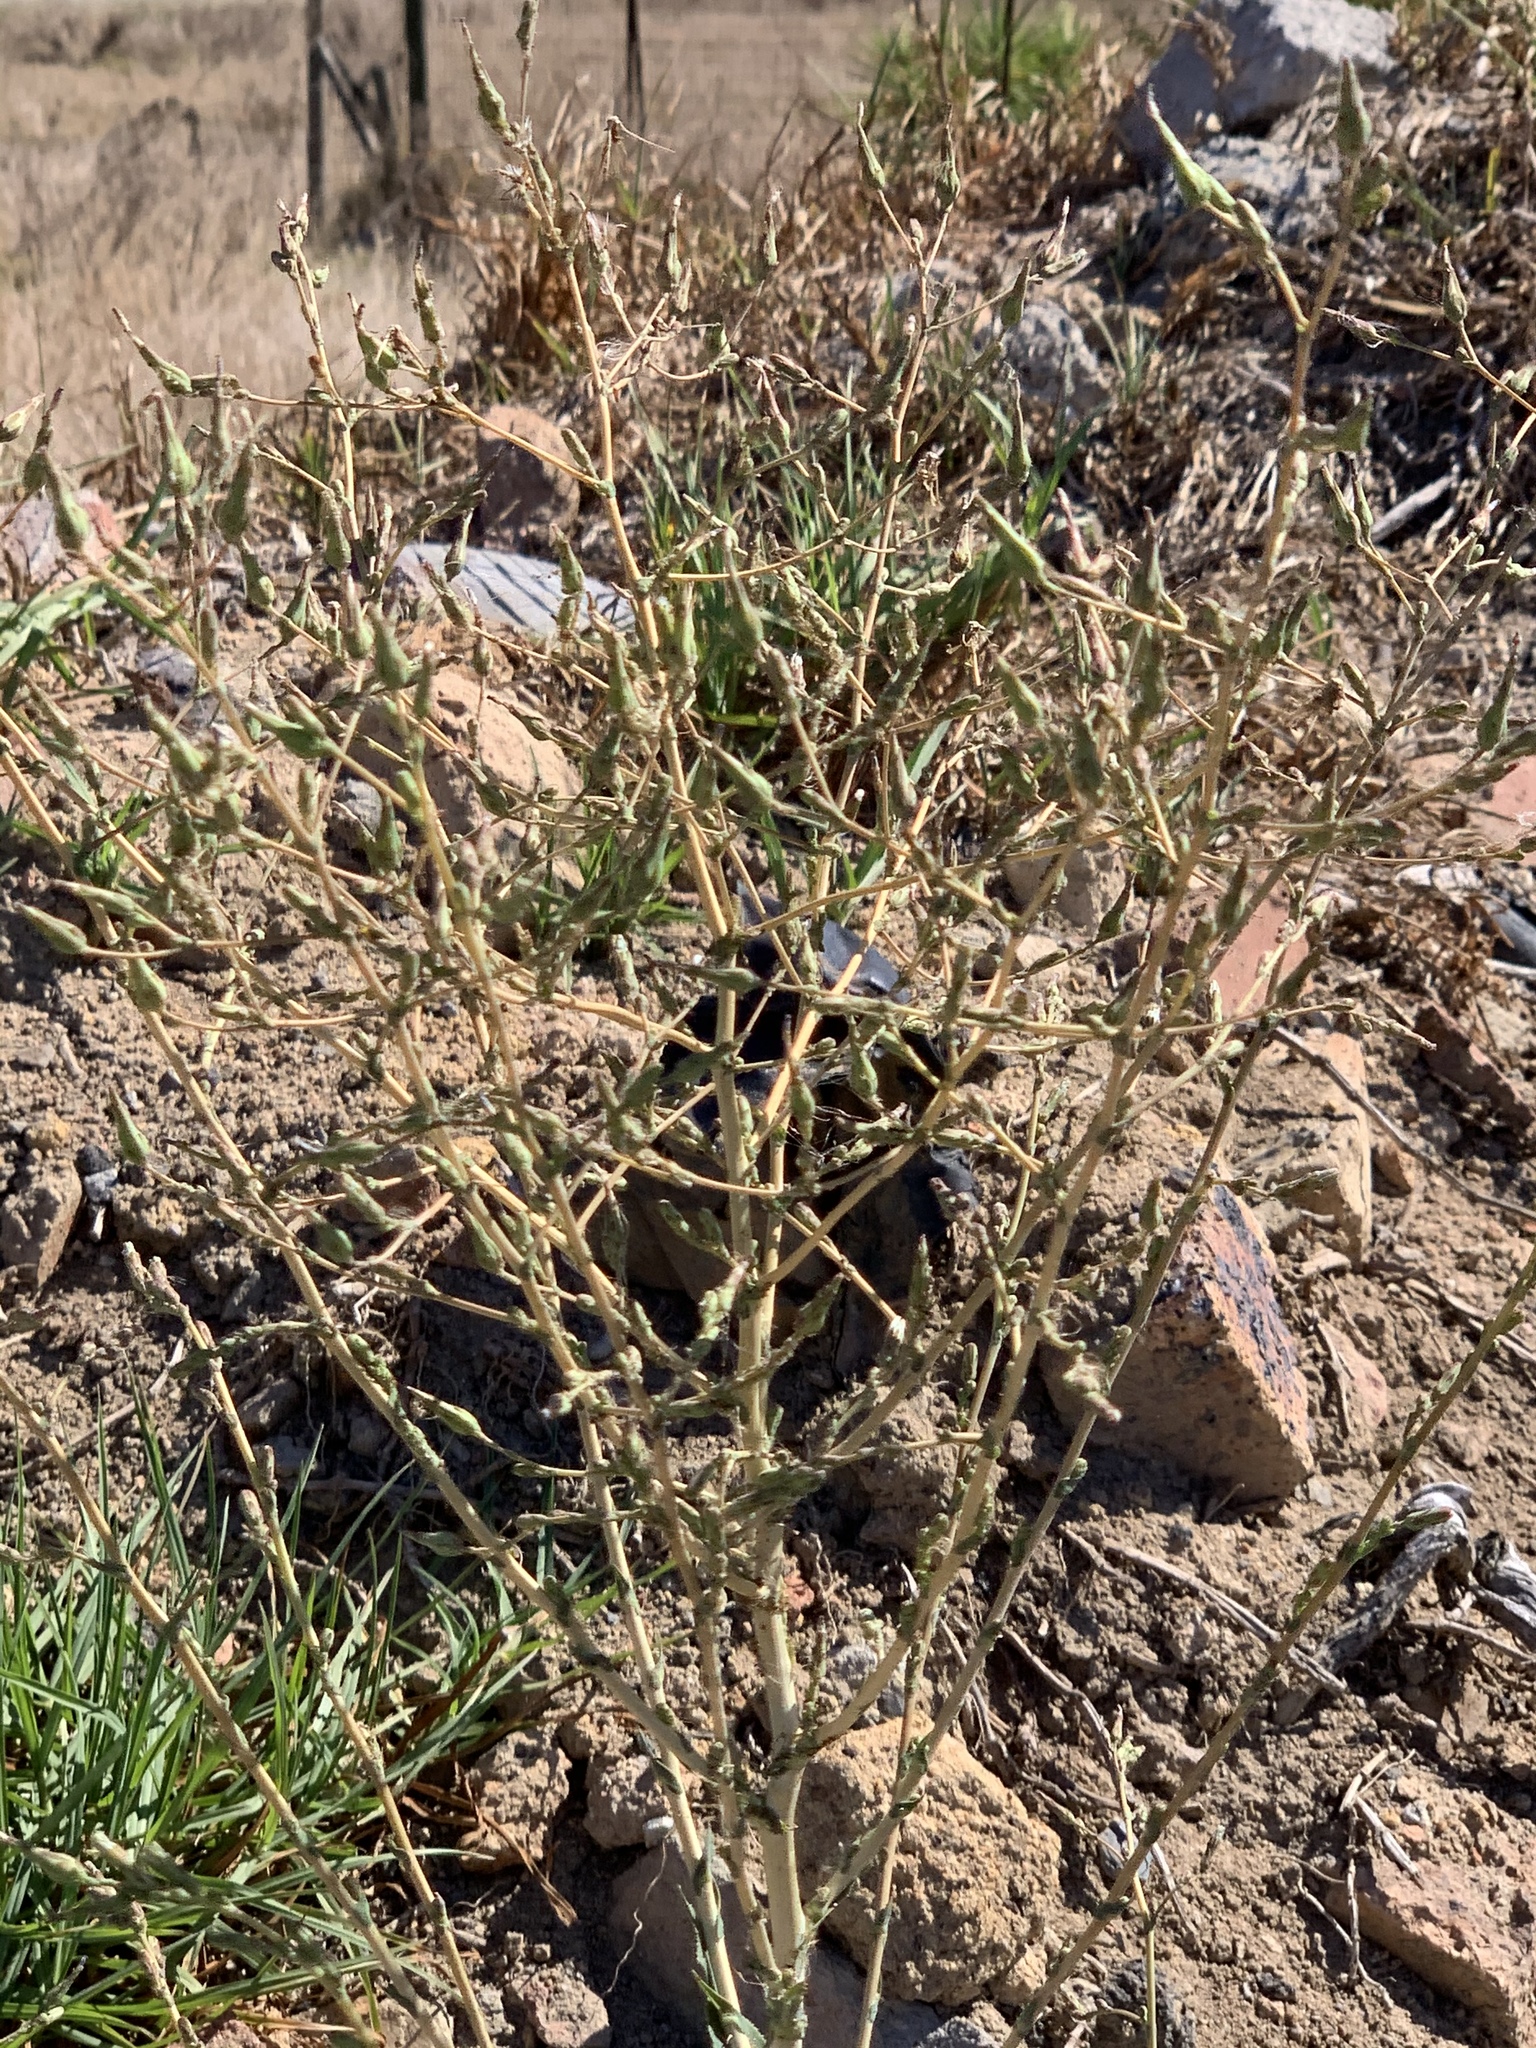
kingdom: Plantae
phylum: Tracheophyta
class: Magnoliopsida
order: Asterales
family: Asteraceae
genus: Lactuca
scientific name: Lactuca serriola
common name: Prickly lettuce
